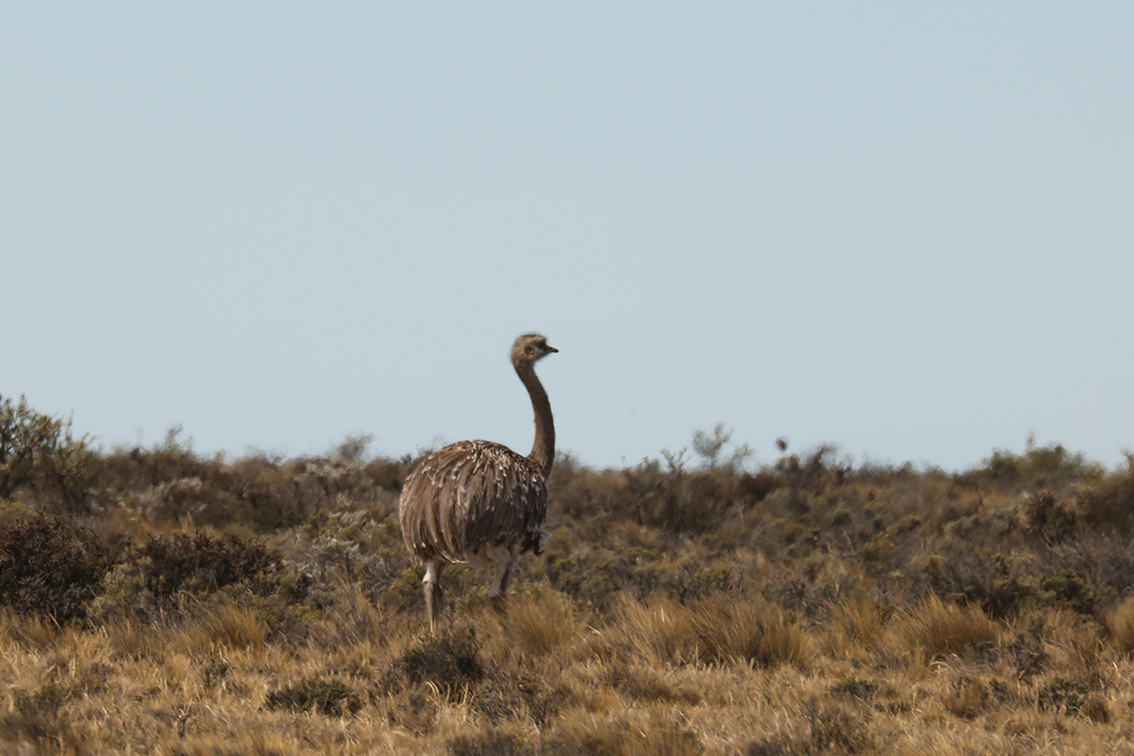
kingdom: Animalia
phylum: Chordata
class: Aves
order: Rheiformes
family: Rheidae
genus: Rhea
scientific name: Rhea pennata
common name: Lesser rhea
